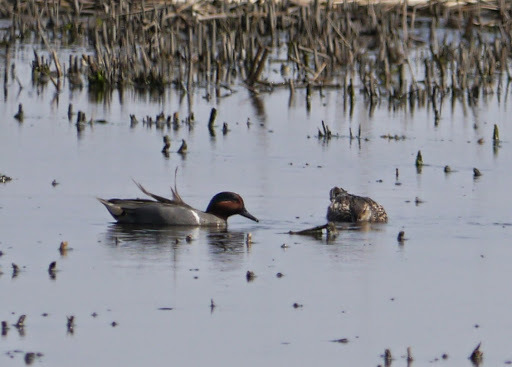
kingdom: Animalia
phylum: Chordata
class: Aves
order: Anseriformes
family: Anatidae
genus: Anas
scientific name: Anas crecca
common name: Eurasian teal
